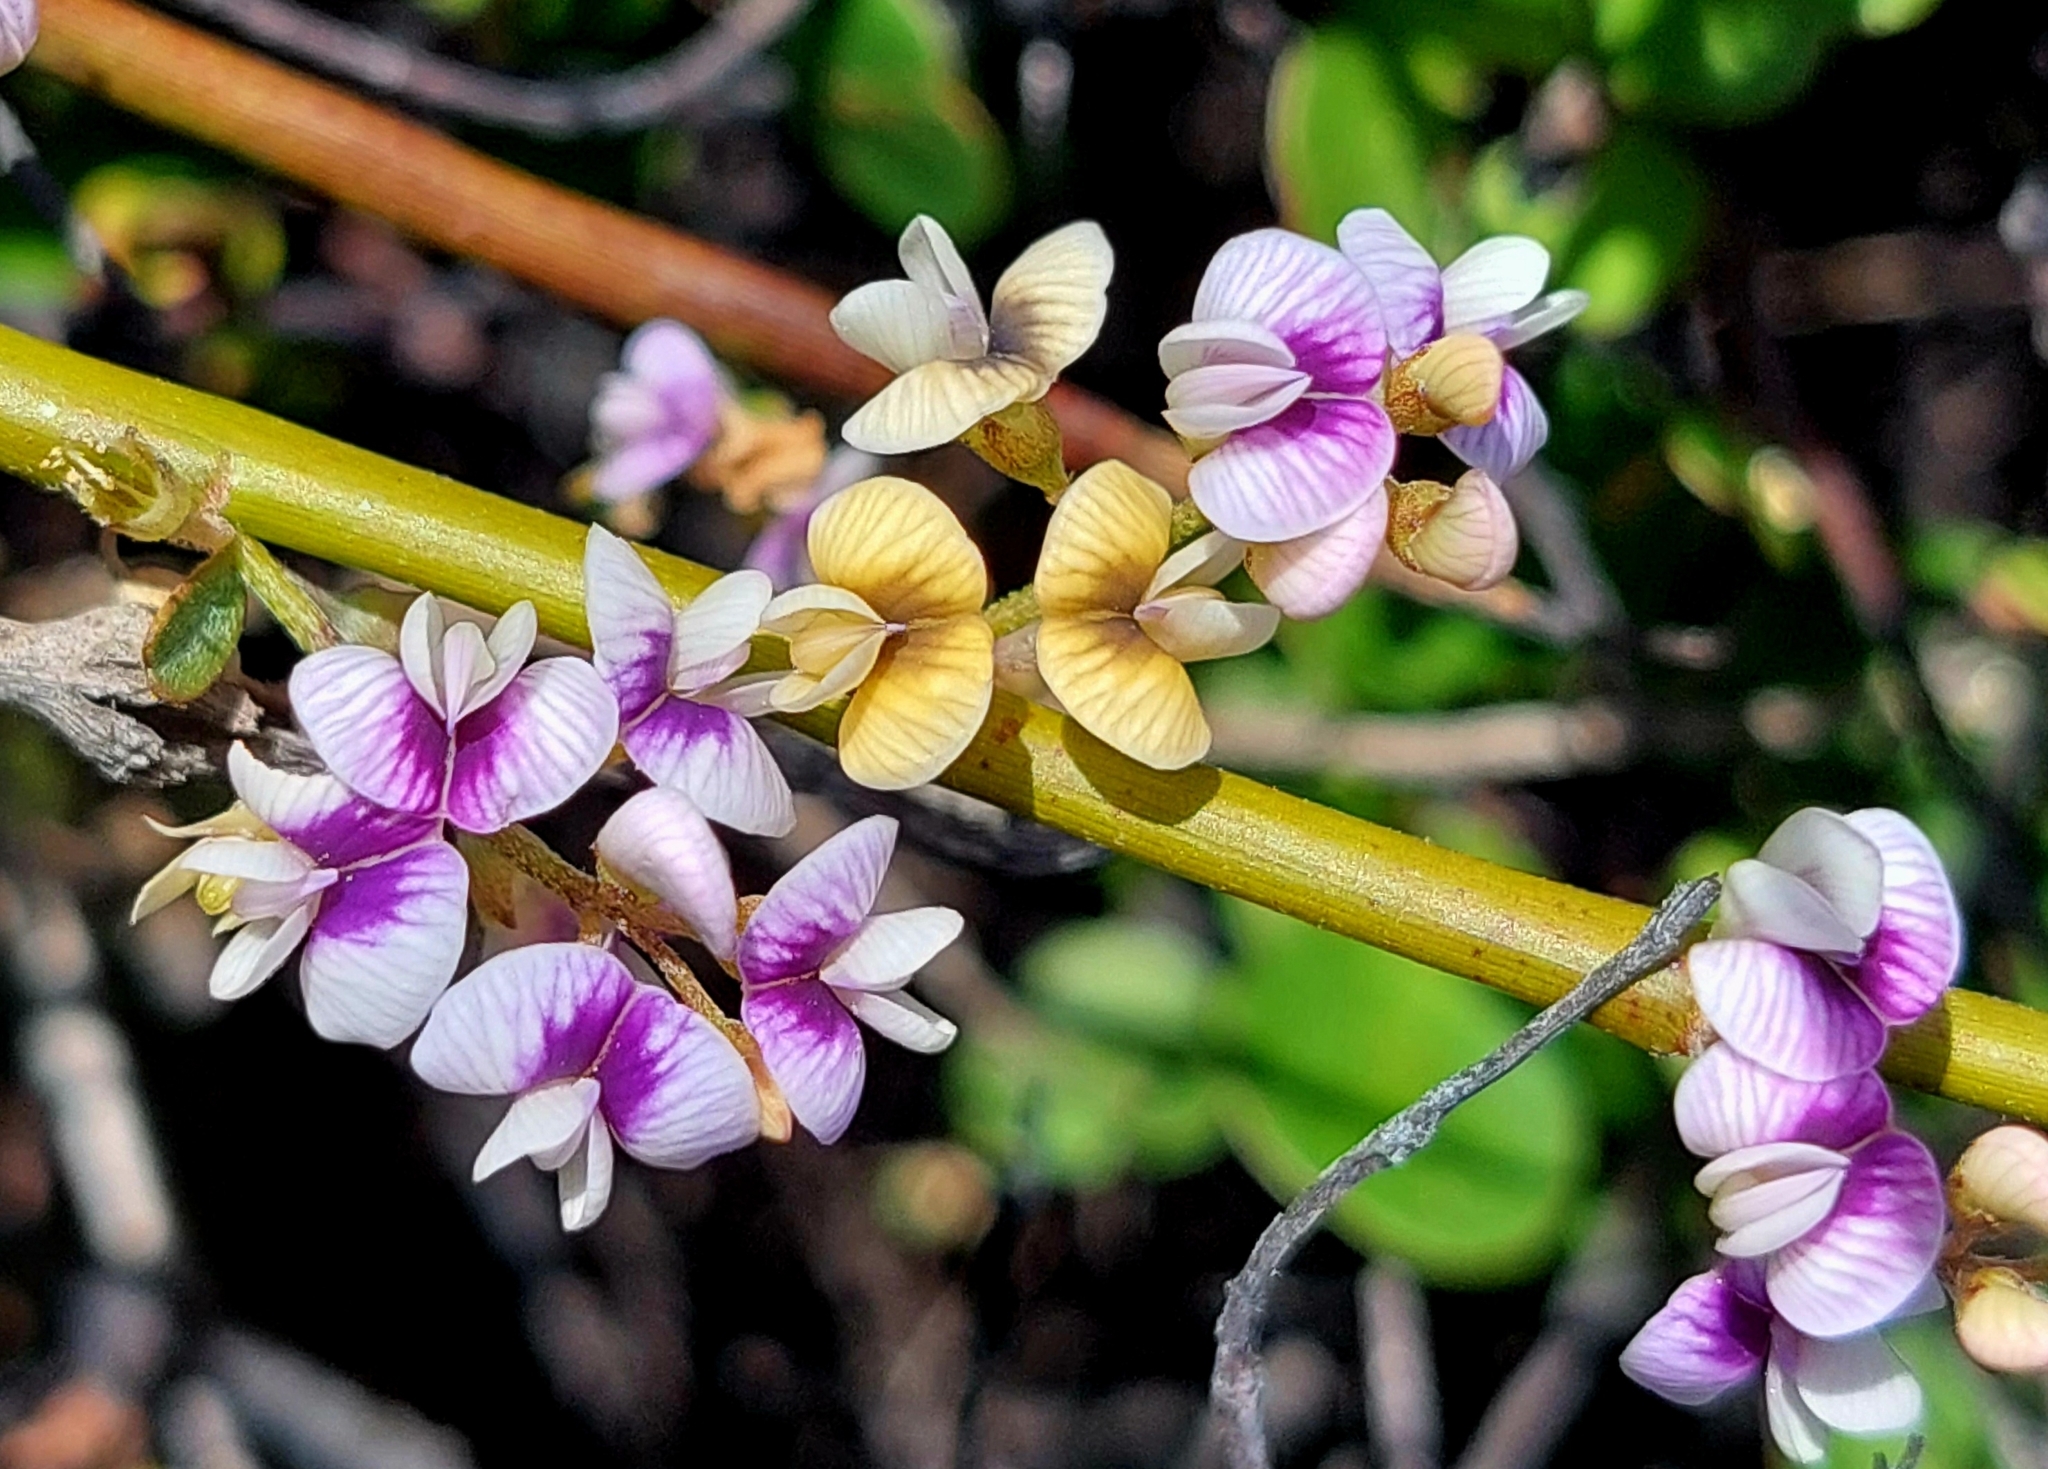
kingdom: Plantae
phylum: Tracheophyta
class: Magnoliopsida
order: Fabales
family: Fabaceae
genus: Carmichaelia
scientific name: Carmichaelia appressa
